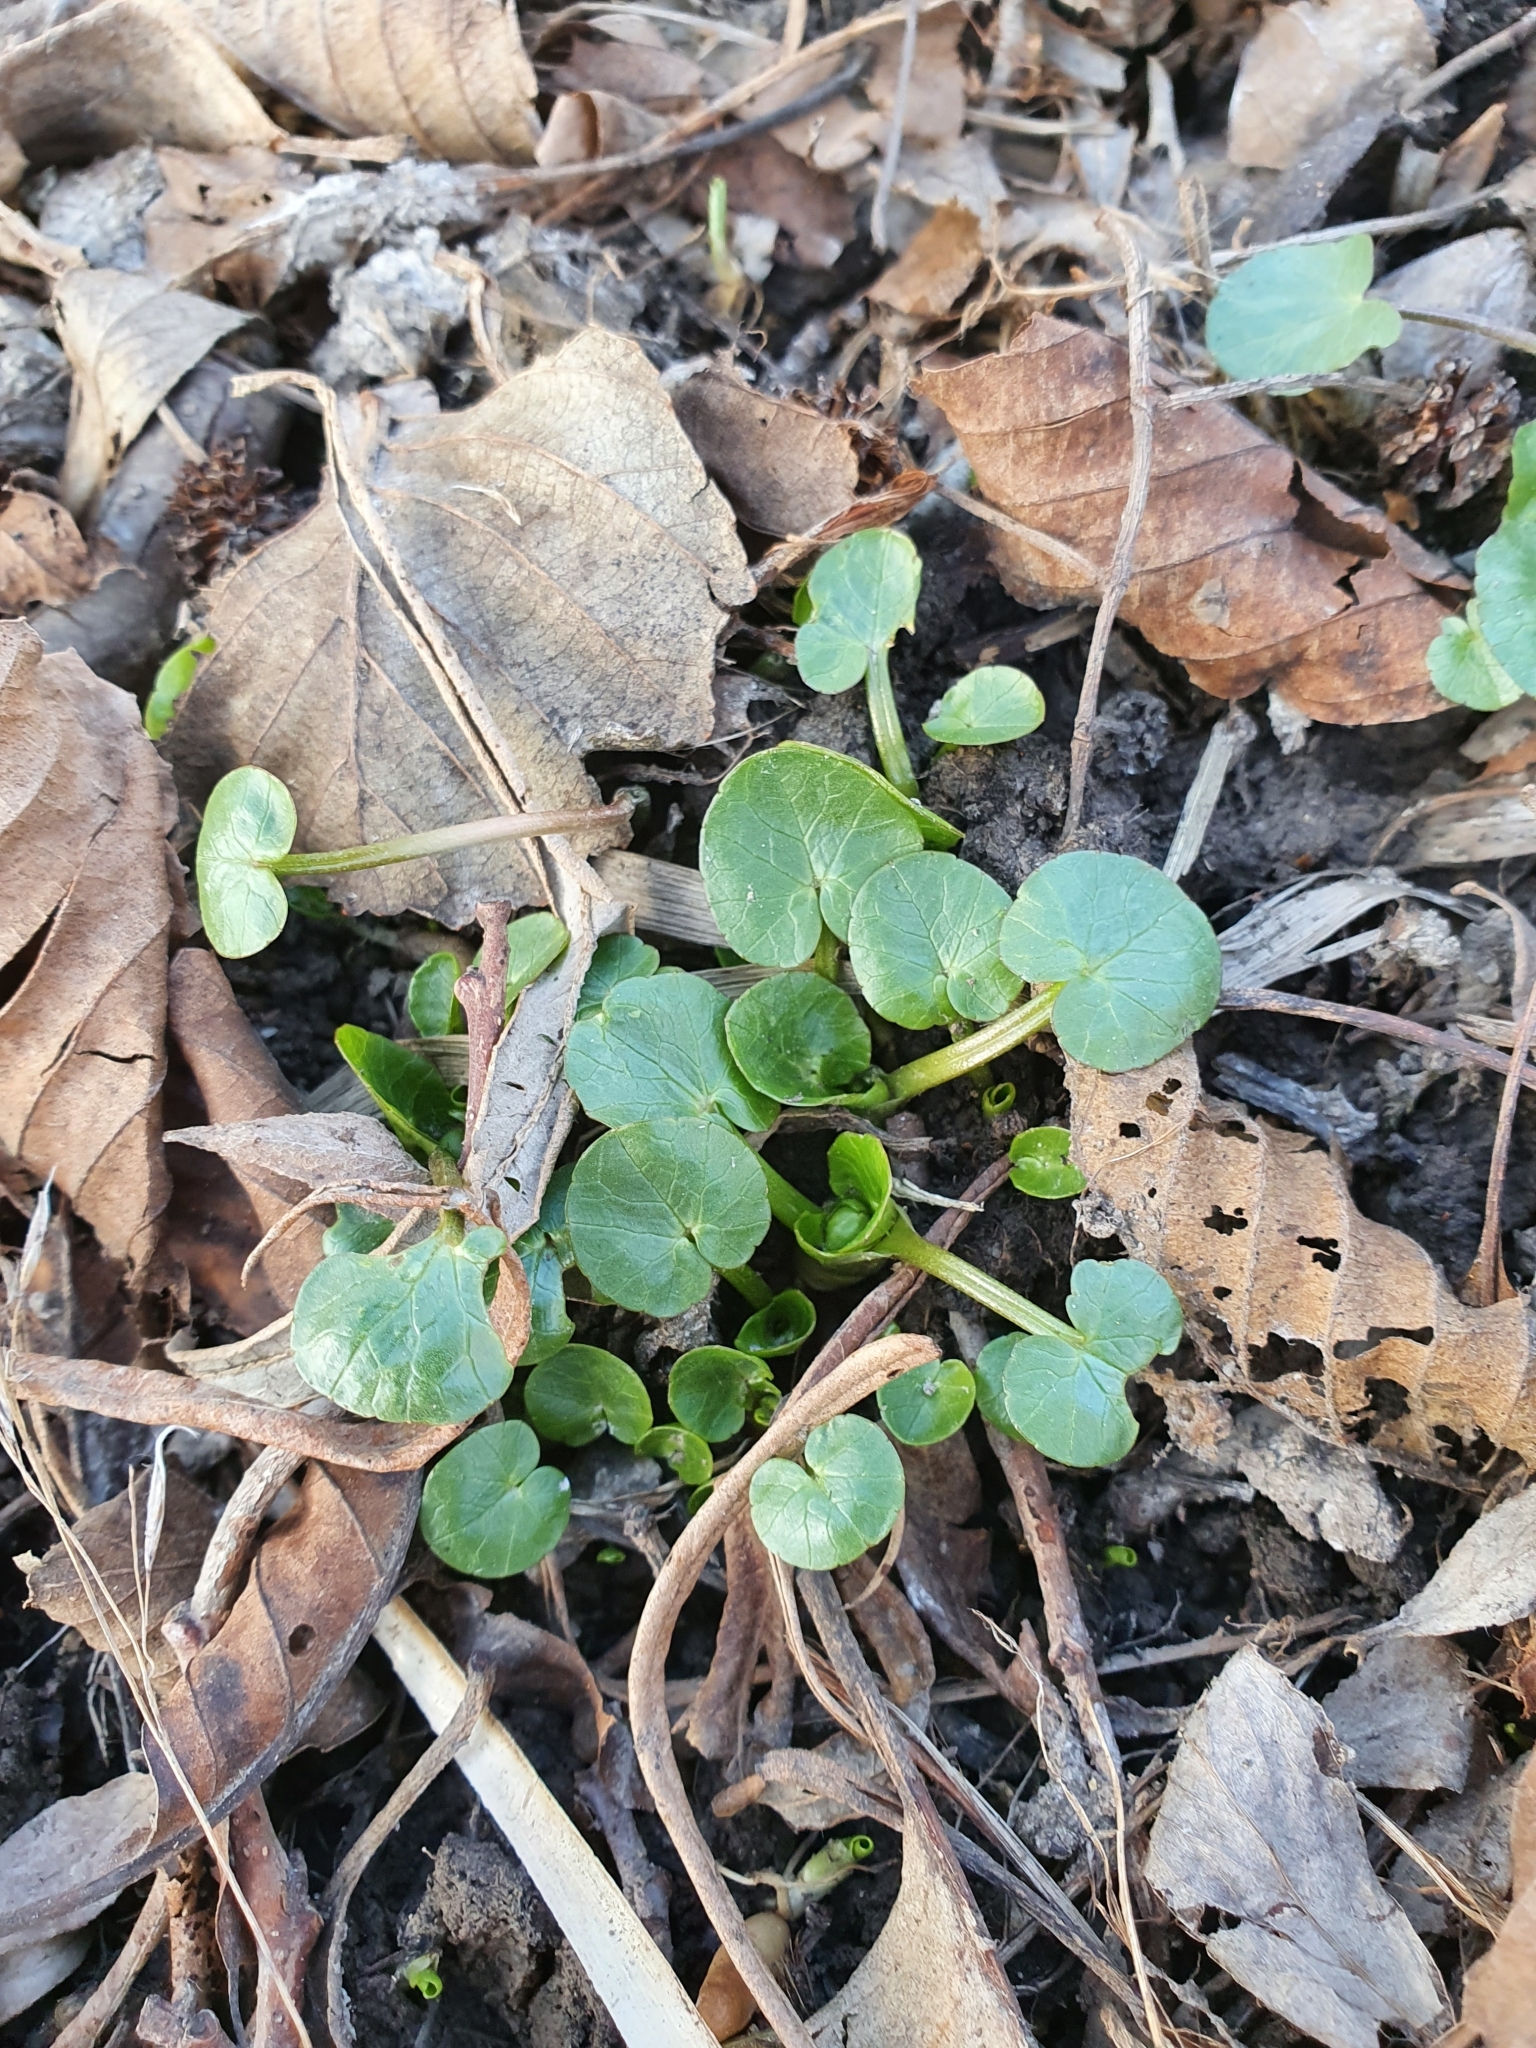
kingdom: Plantae
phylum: Tracheophyta
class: Magnoliopsida
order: Ranunculales
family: Ranunculaceae
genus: Ficaria
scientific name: Ficaria verna
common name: Lesser celandine
